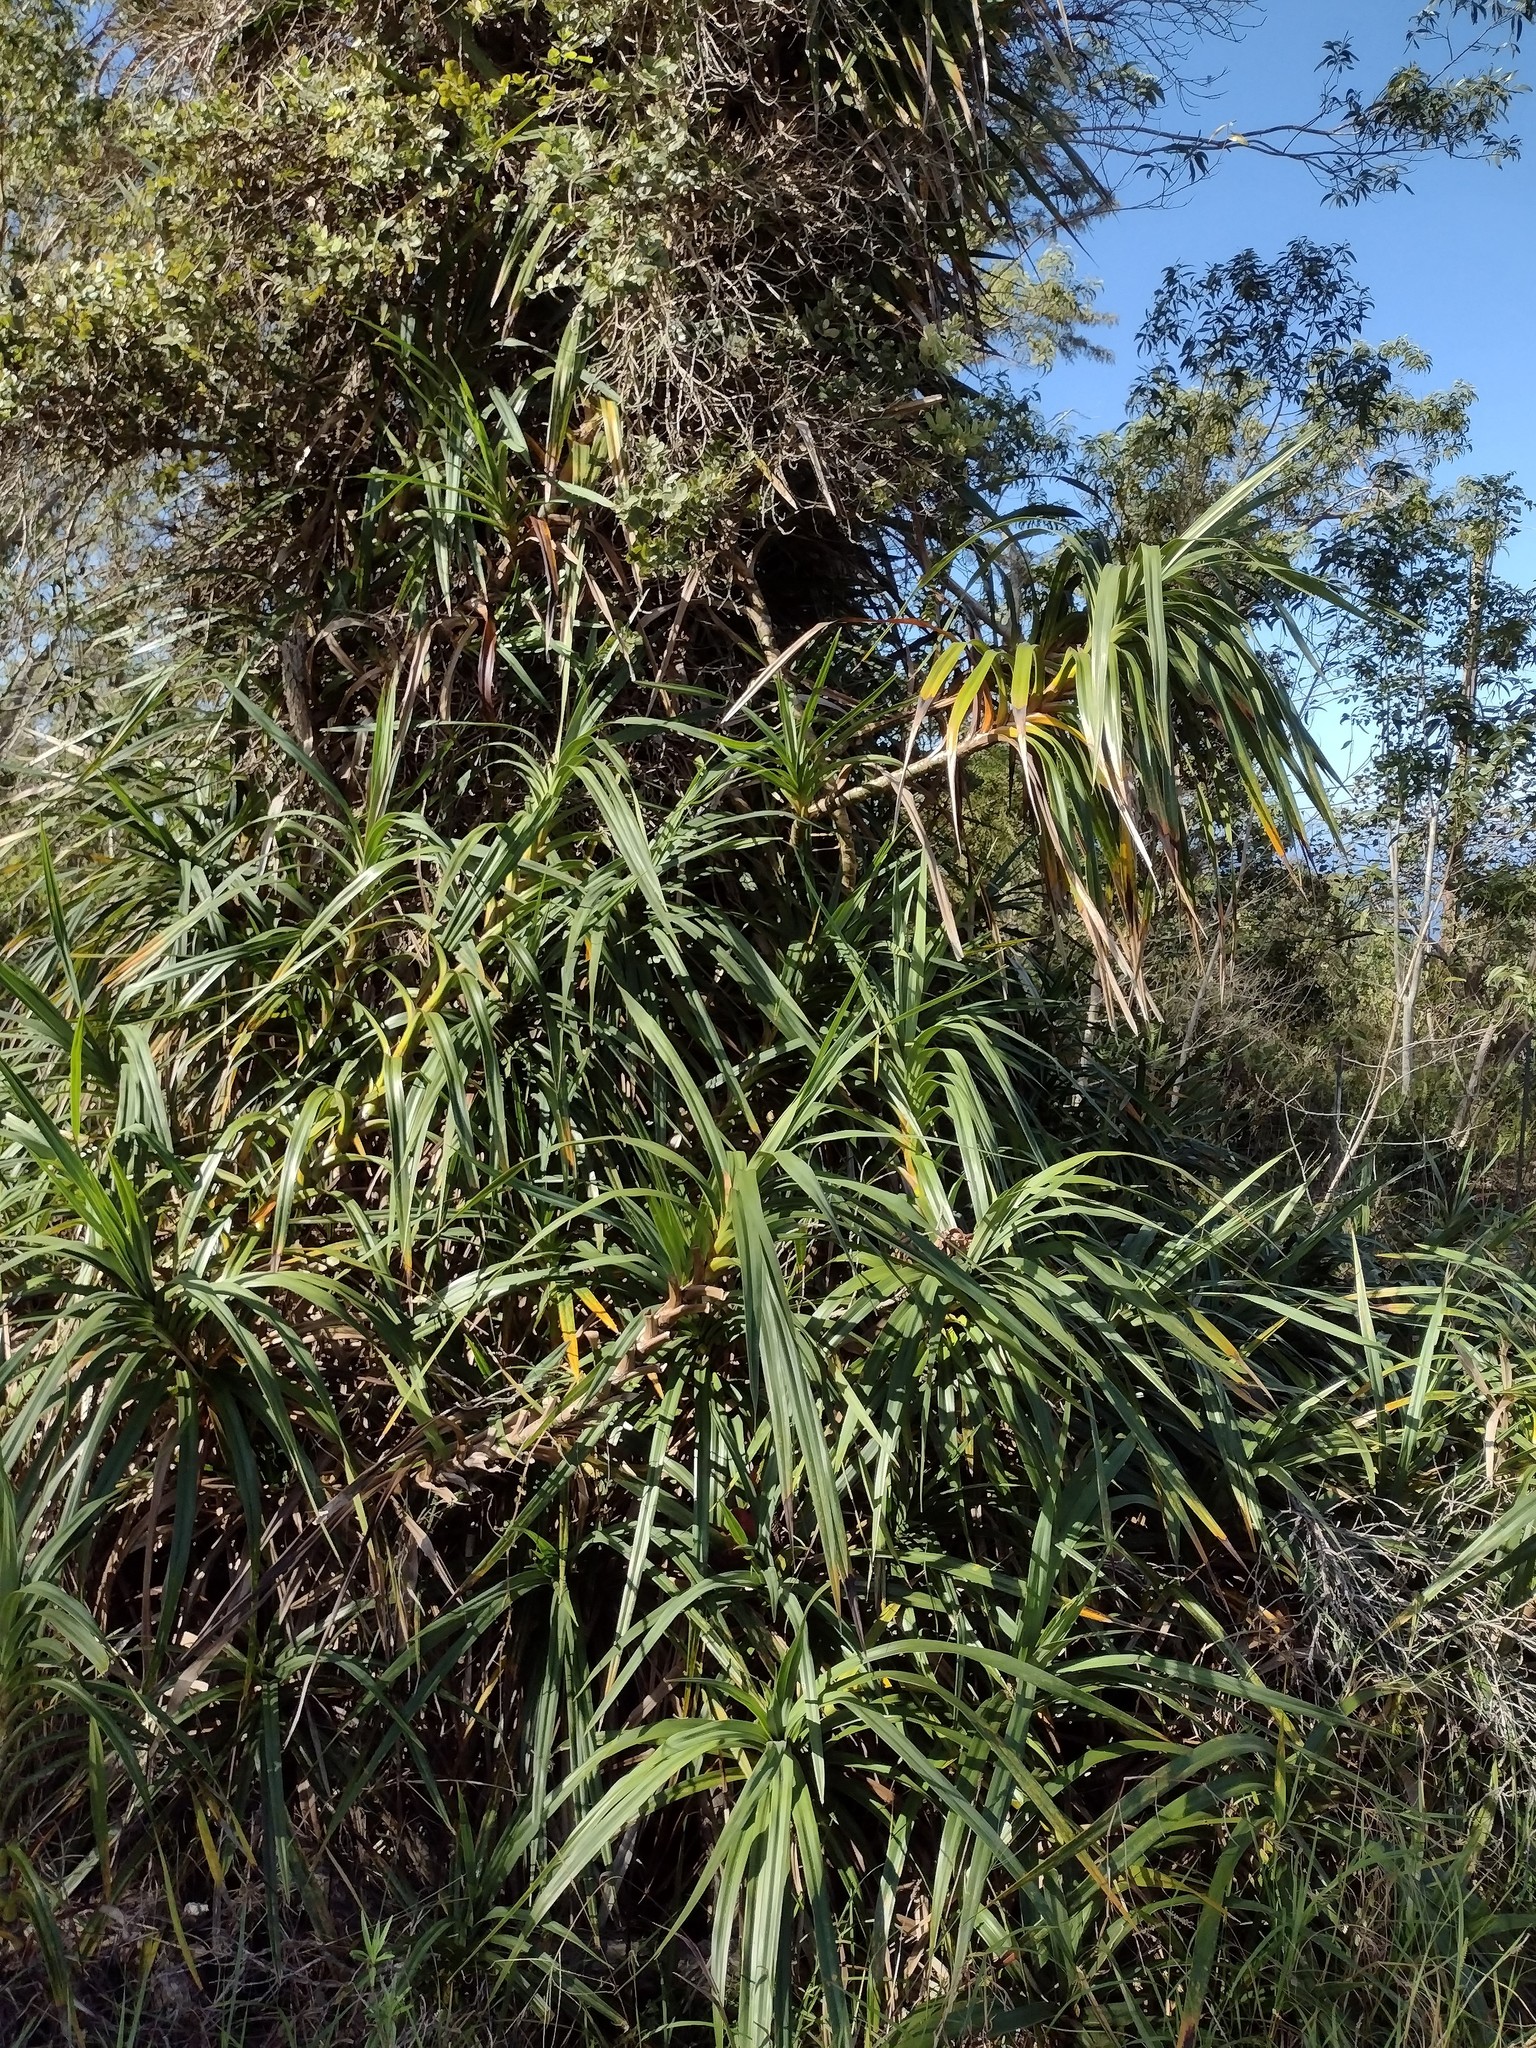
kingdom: Plantae
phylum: Tracheophyta
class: Liliopsida
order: Pandanales
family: Pandanaceae
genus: Freycinetia
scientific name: Freycinetia arborea
